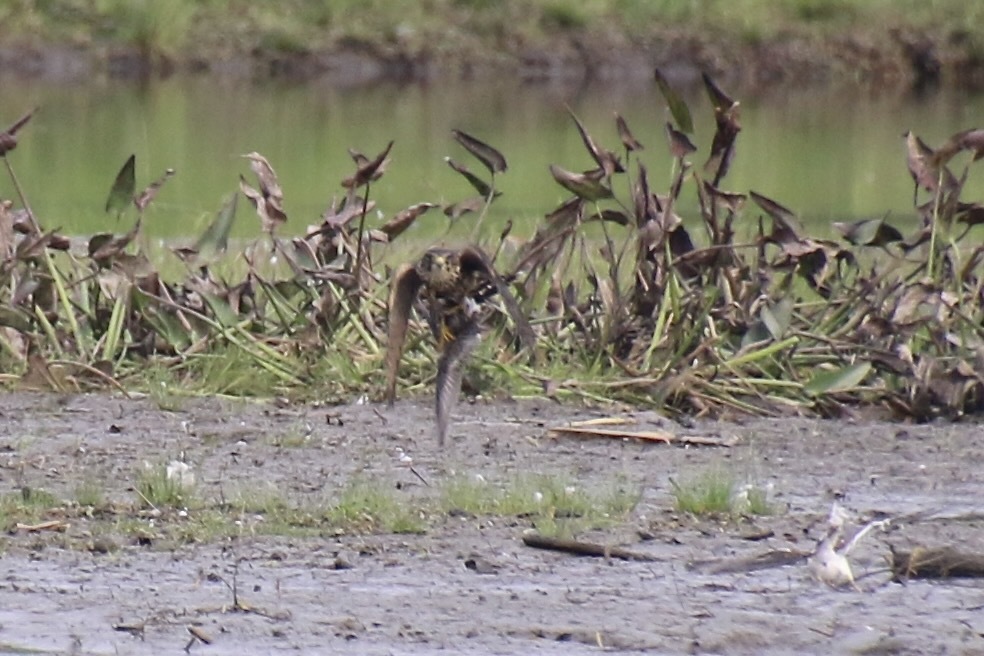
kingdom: Animalia
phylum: Chordata
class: Aves
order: Falconiformes
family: Falconidae
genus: Falco
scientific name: Falco columbarius
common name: Merlin
